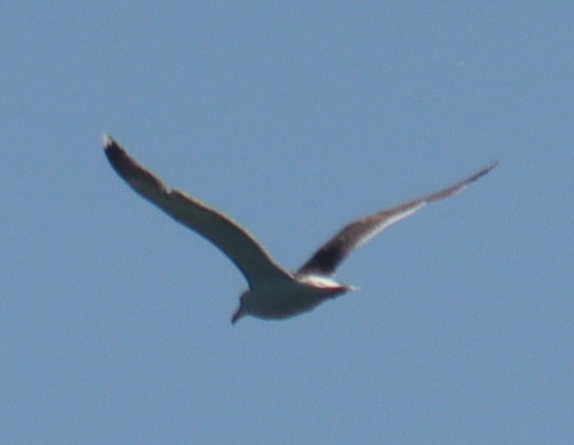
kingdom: Animalia
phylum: Chordata
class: Aves
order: Charadriiformes
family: Laridae
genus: Larus
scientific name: Larus marinus
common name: Great black-backed gull
